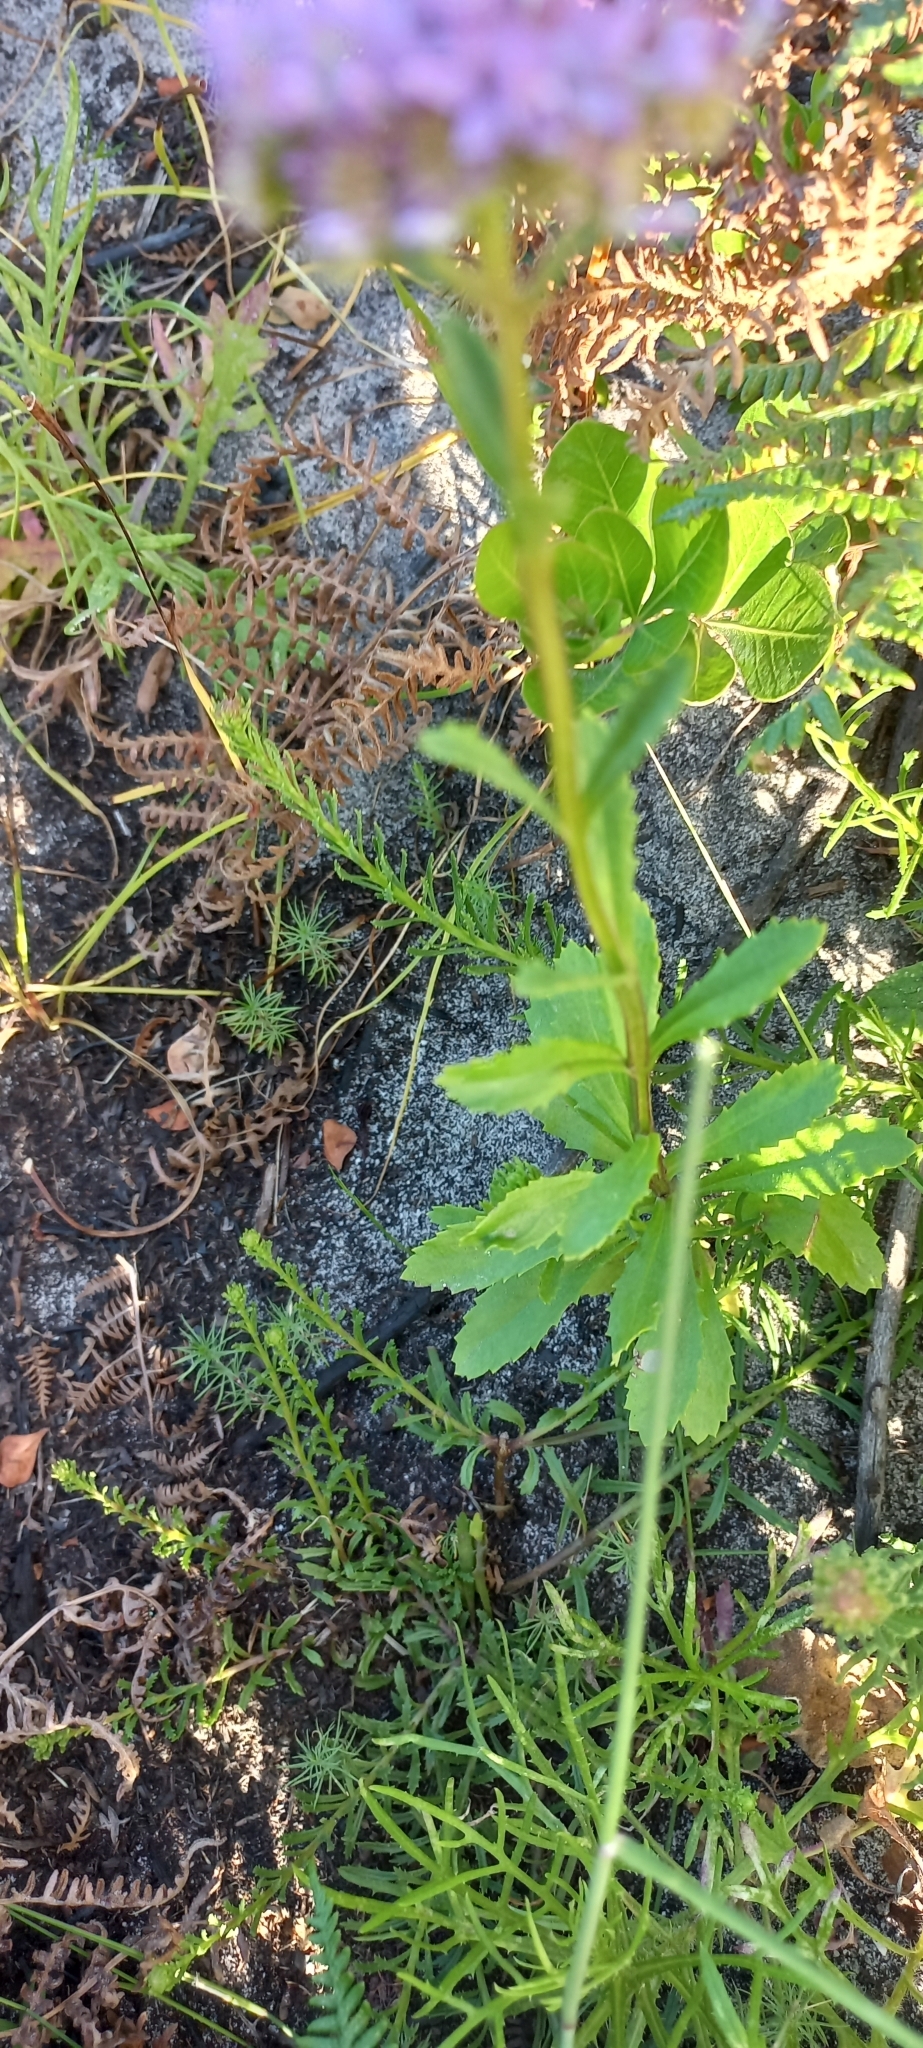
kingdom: Plantae
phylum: Tracheophyta
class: Magnoliopsida
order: Lamiales
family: Scrophulariaceae
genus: Pseudoselago
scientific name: Pseudoselago verbenacea
